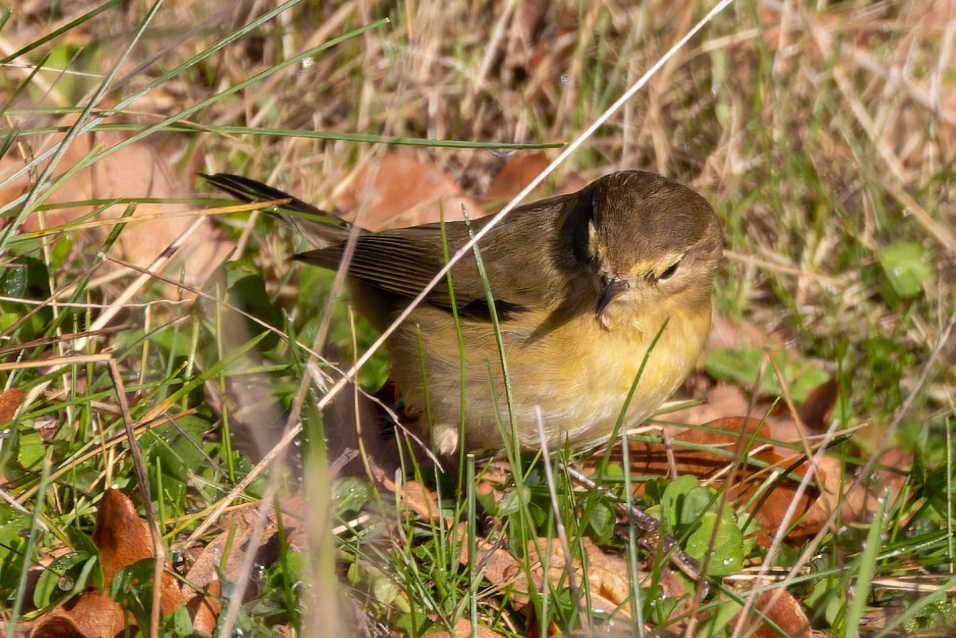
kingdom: Animalia
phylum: Chordata
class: Aves
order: Passeriformes
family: Phylloscopidae
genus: Phylloscopus
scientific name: Phylloscopus collybita
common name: Common chiffchaff
